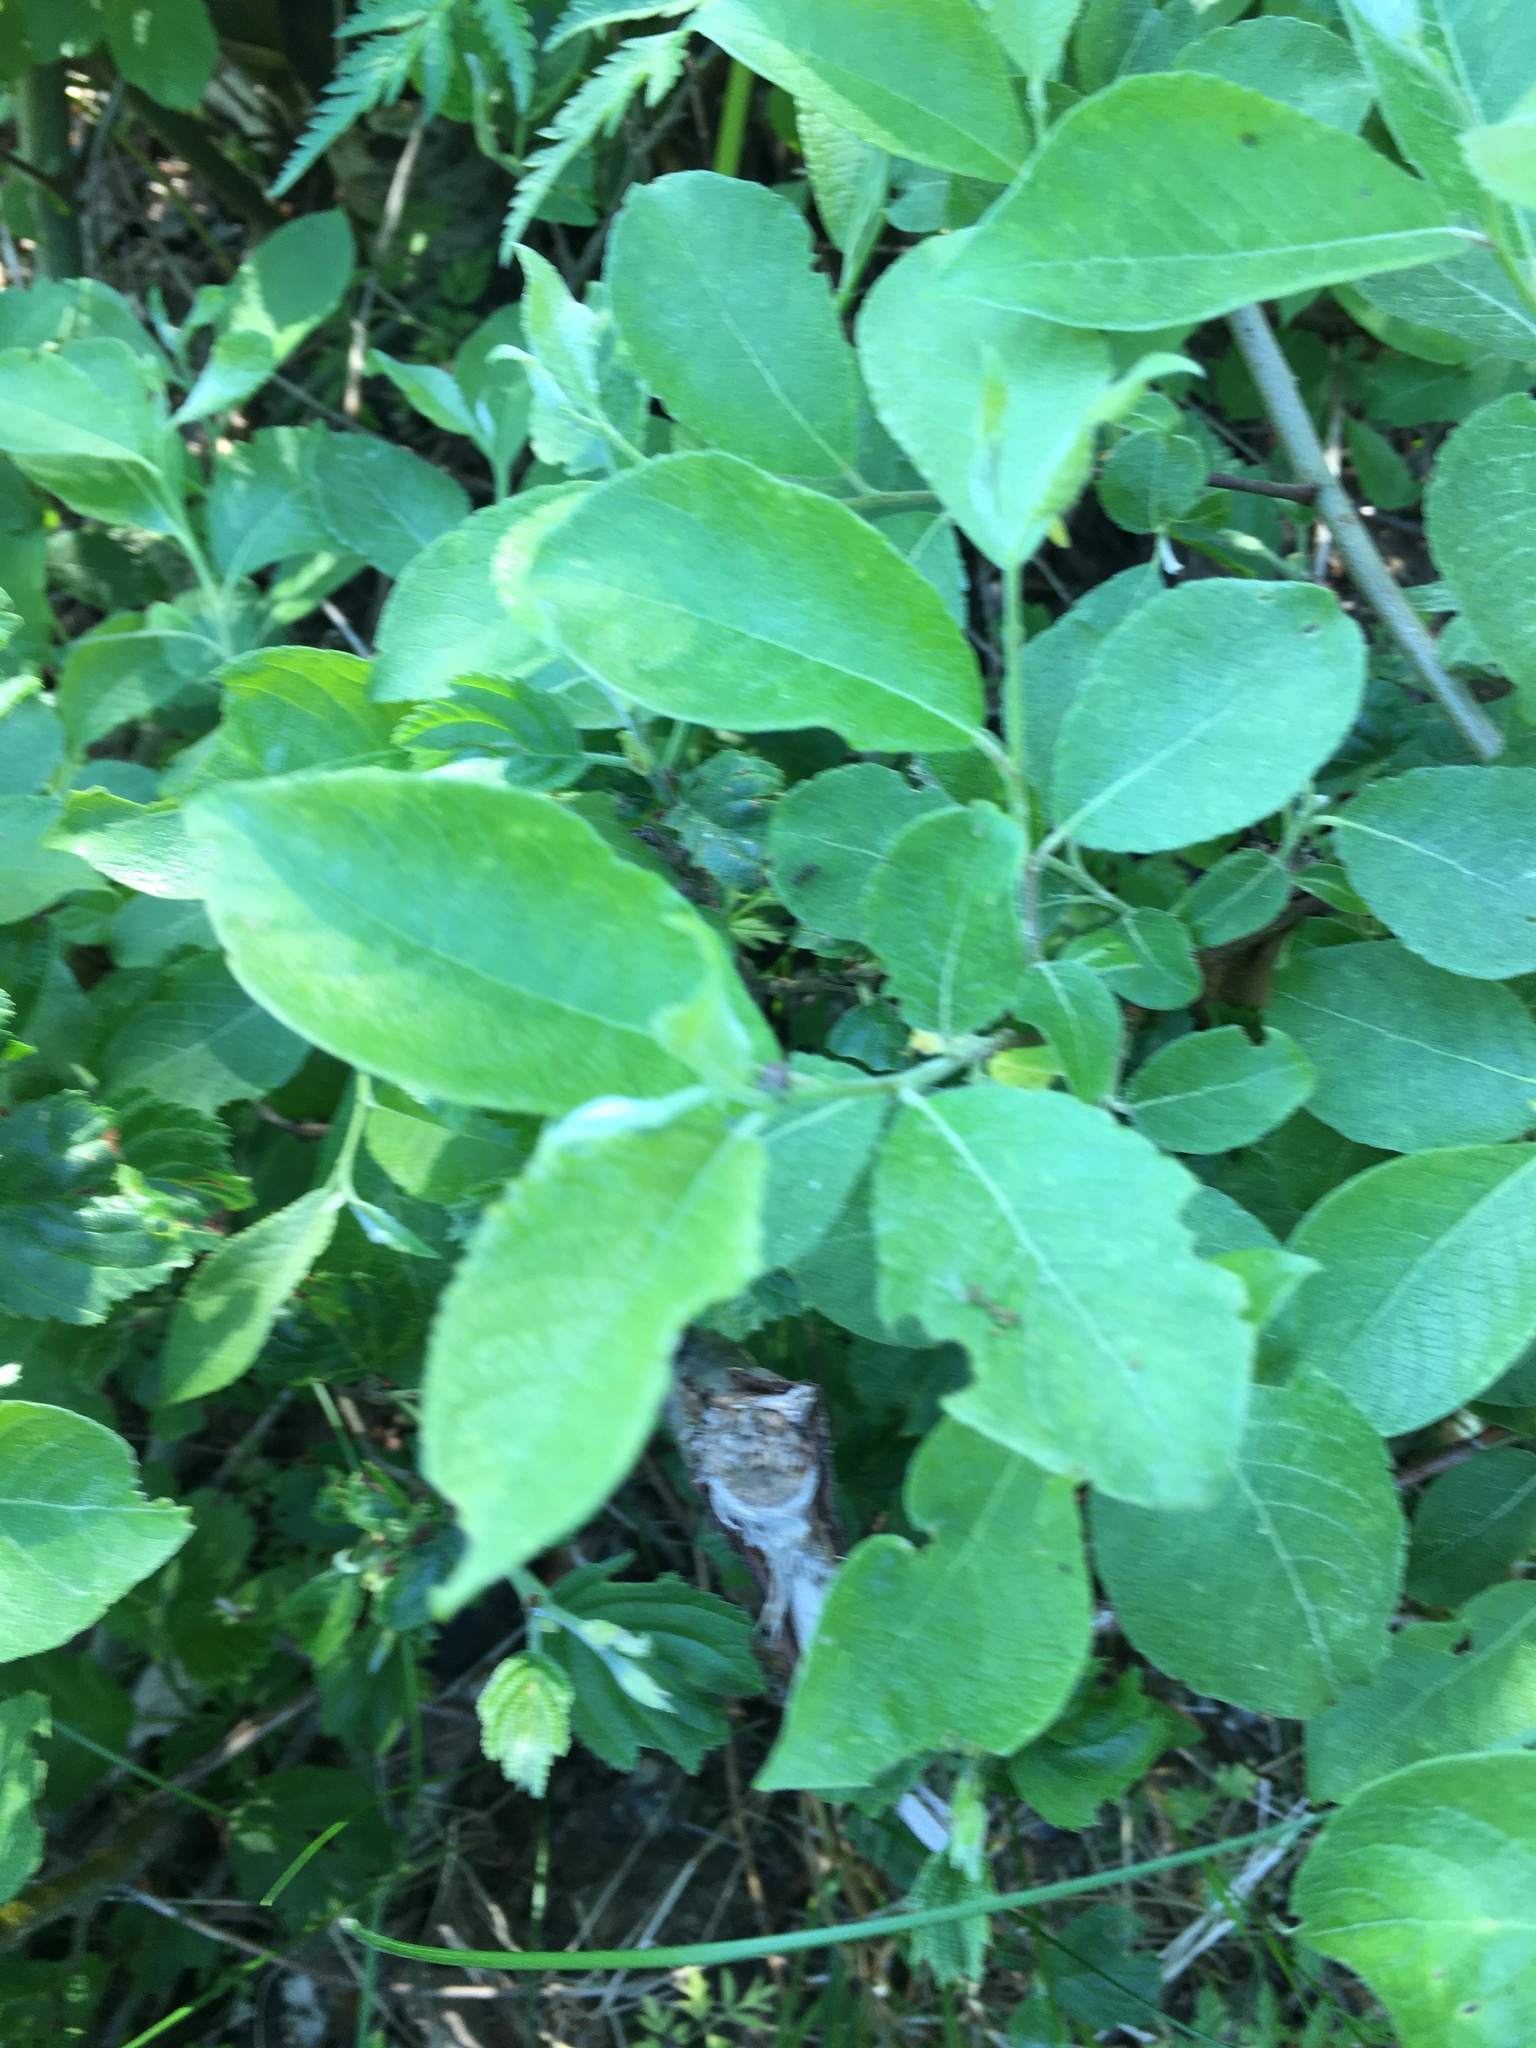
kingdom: Plantae
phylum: Tracheophyta
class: Magnoliopsida
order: Malpighiales
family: Salicaceae
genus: Salix
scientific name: Salix caprea
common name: Goat willow
